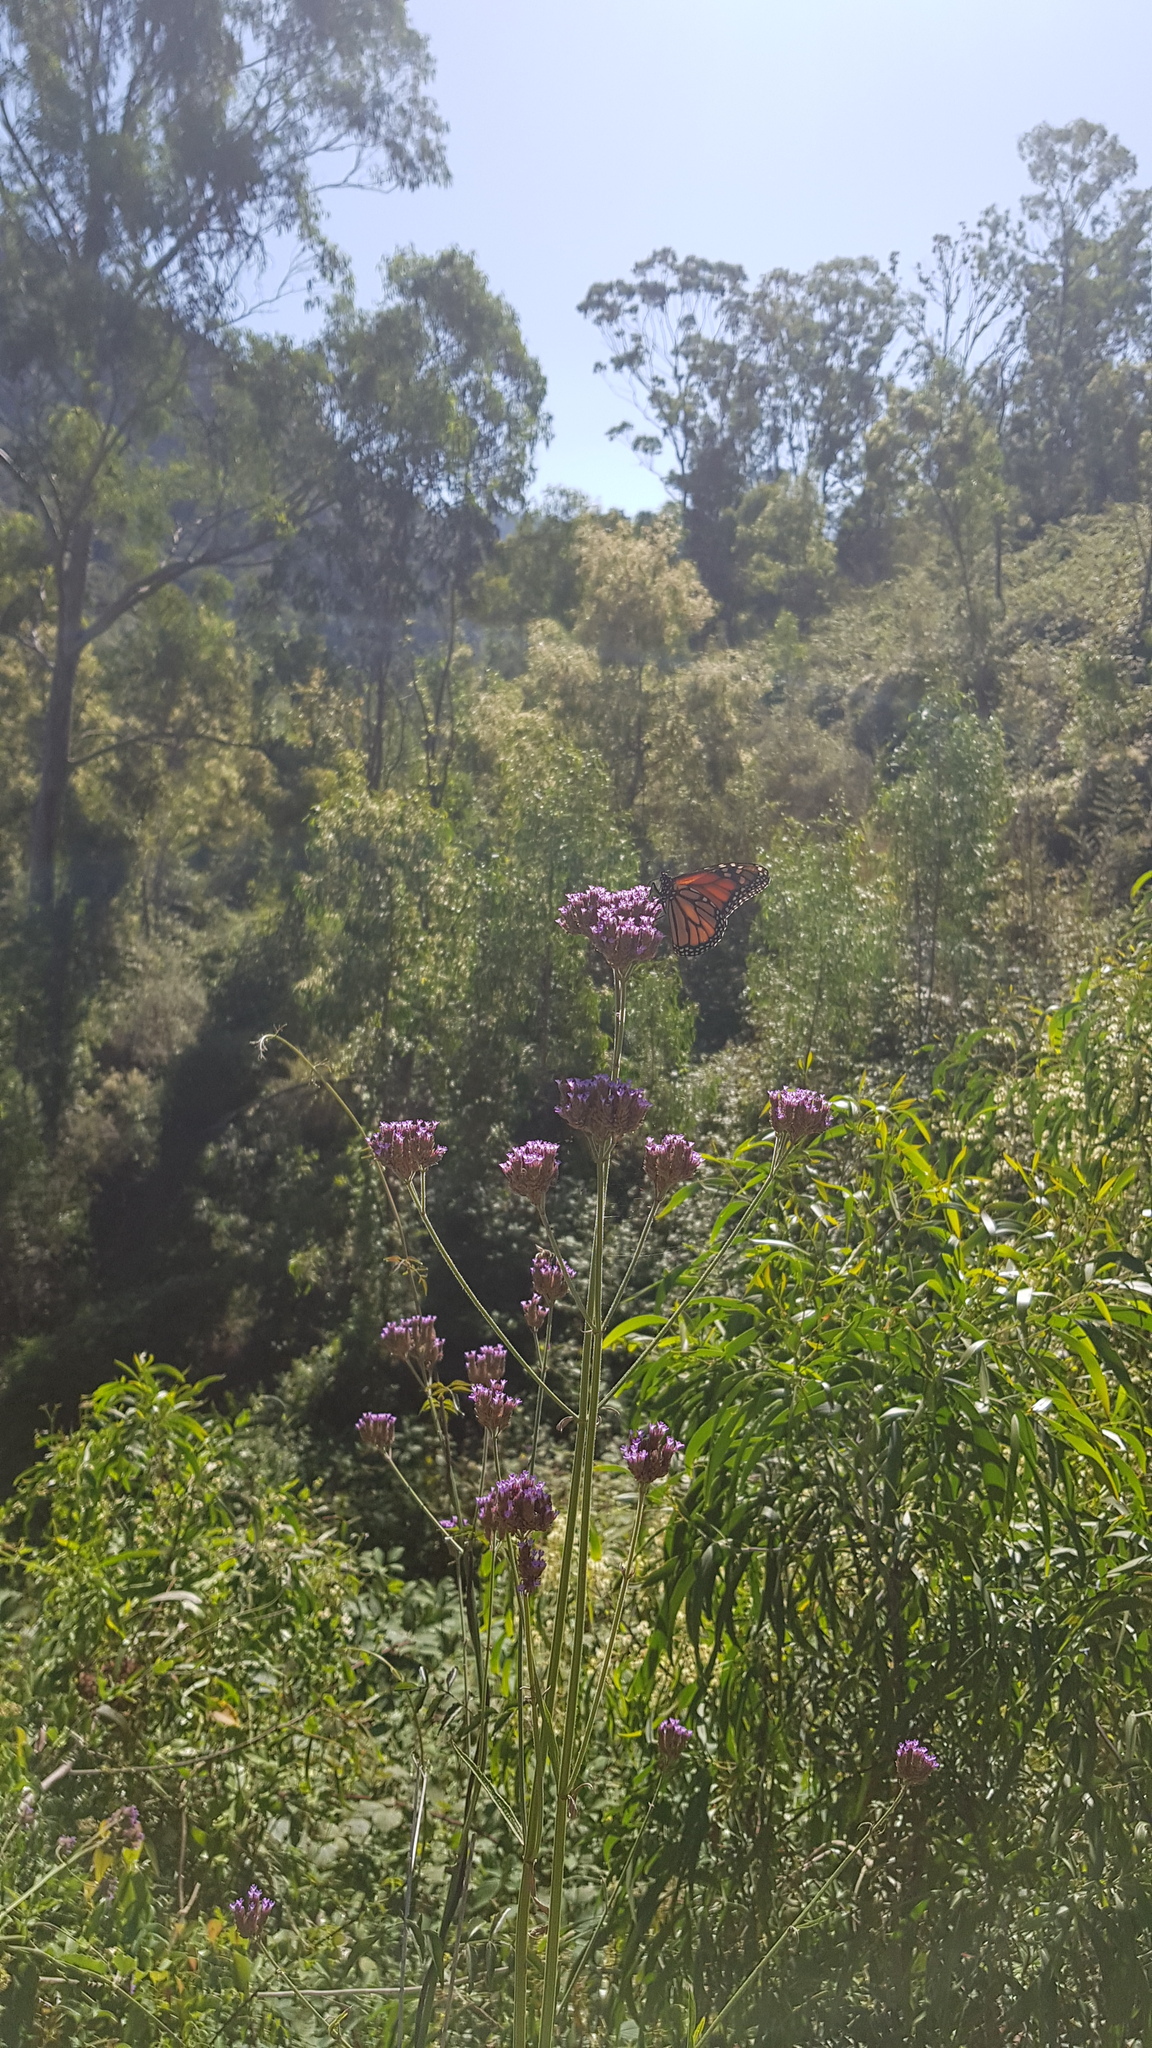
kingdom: Animalia
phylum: Arthropoda
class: Insecta
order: Lepidoptera
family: Nymphalidae
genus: Danaus
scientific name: Danaus plexippus
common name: Monarch
